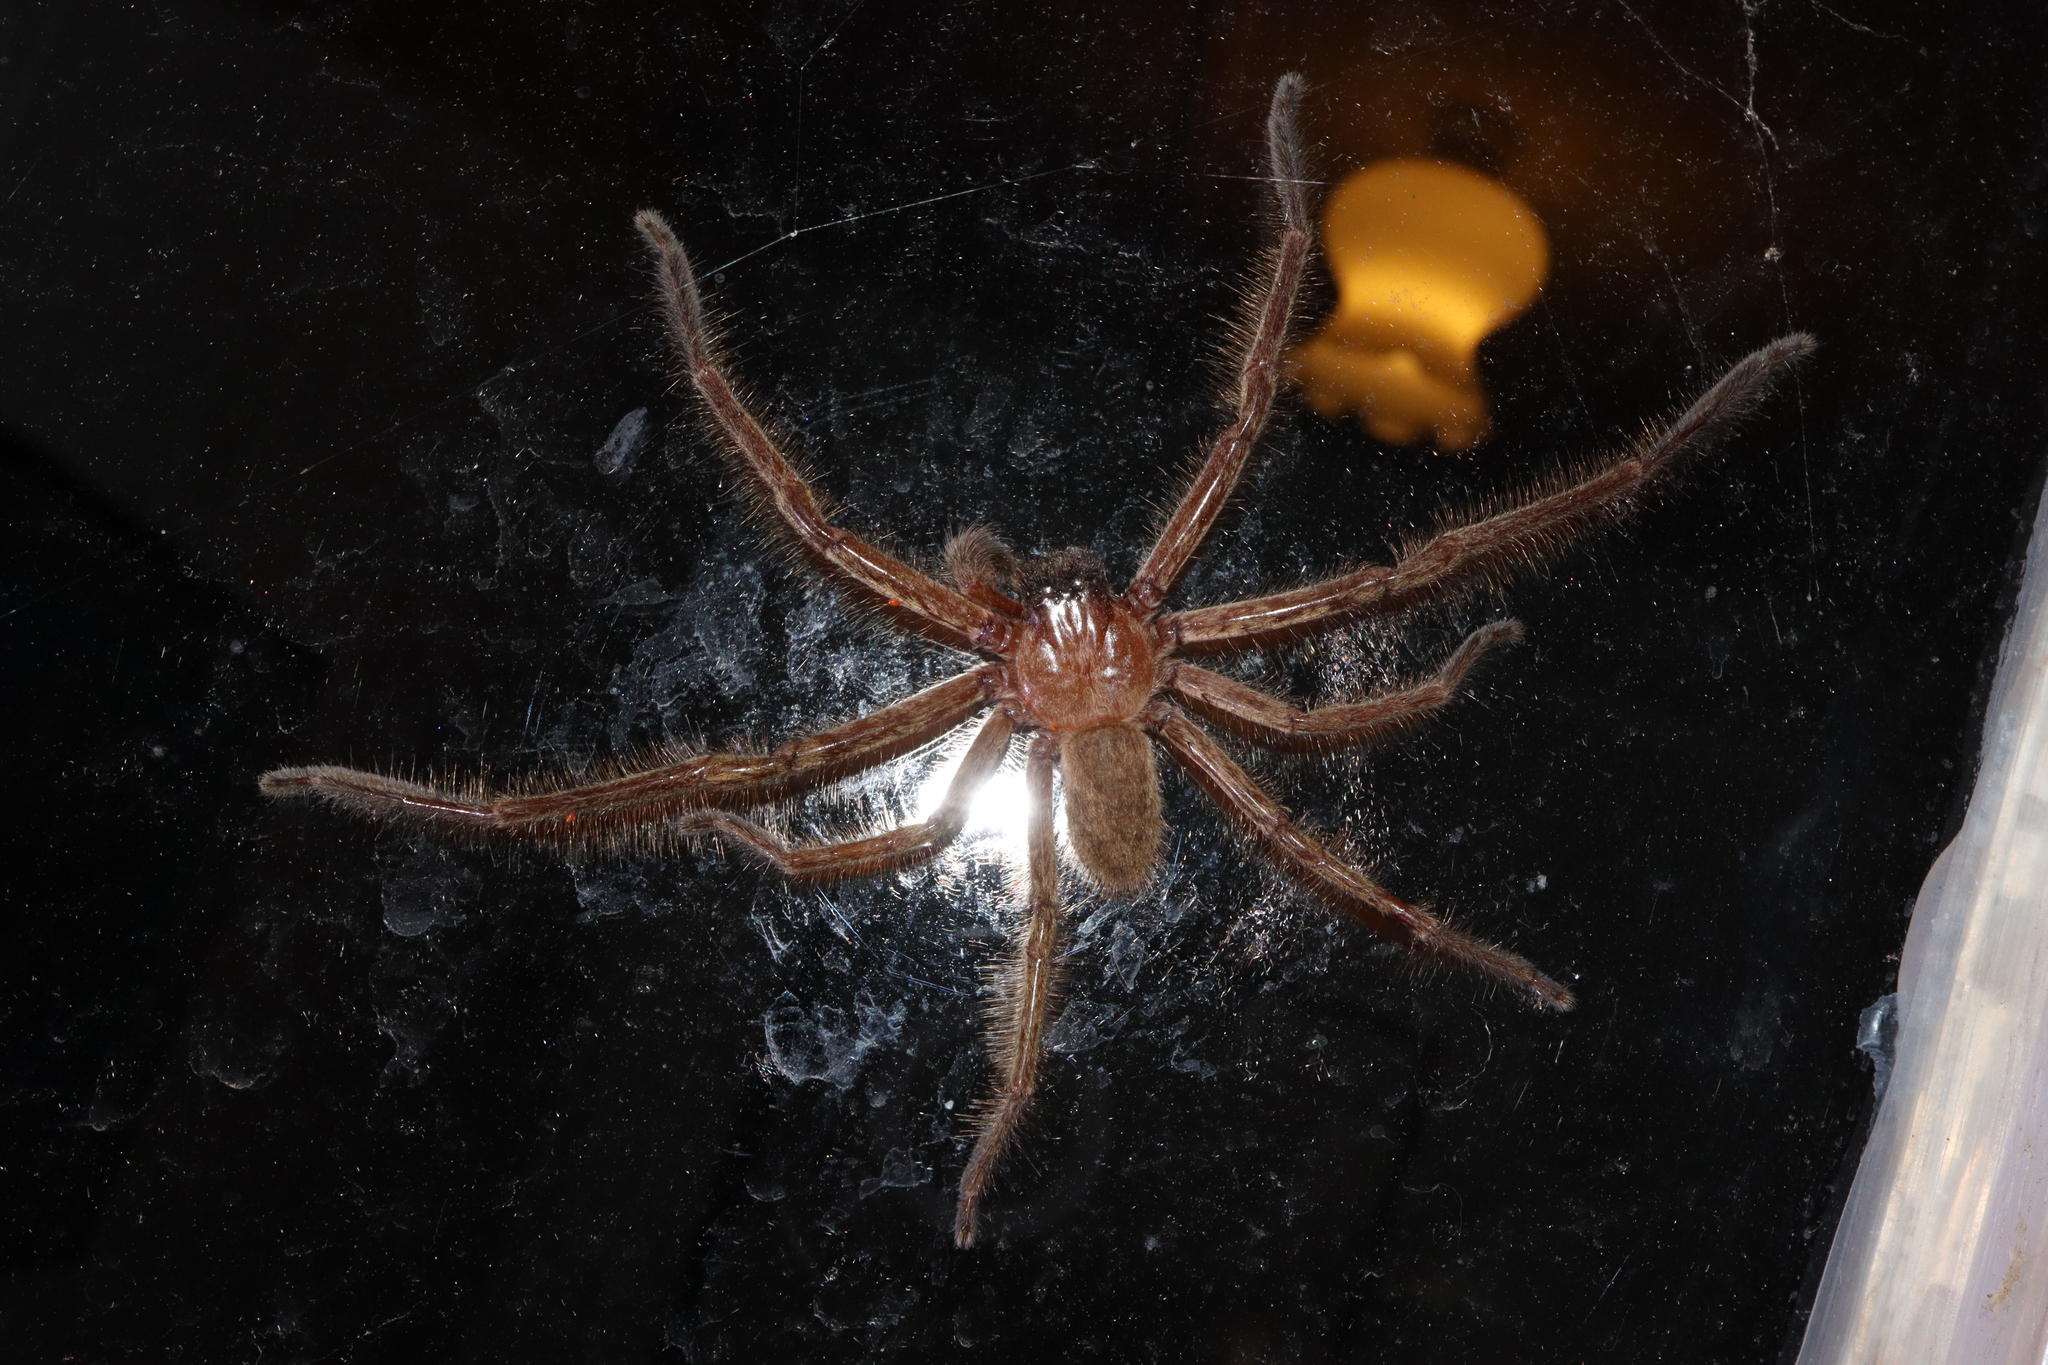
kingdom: Animalia
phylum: Arthropoda
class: Arachnida
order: Araneae
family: Sparassidae
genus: Delena
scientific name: Delena cancerides
